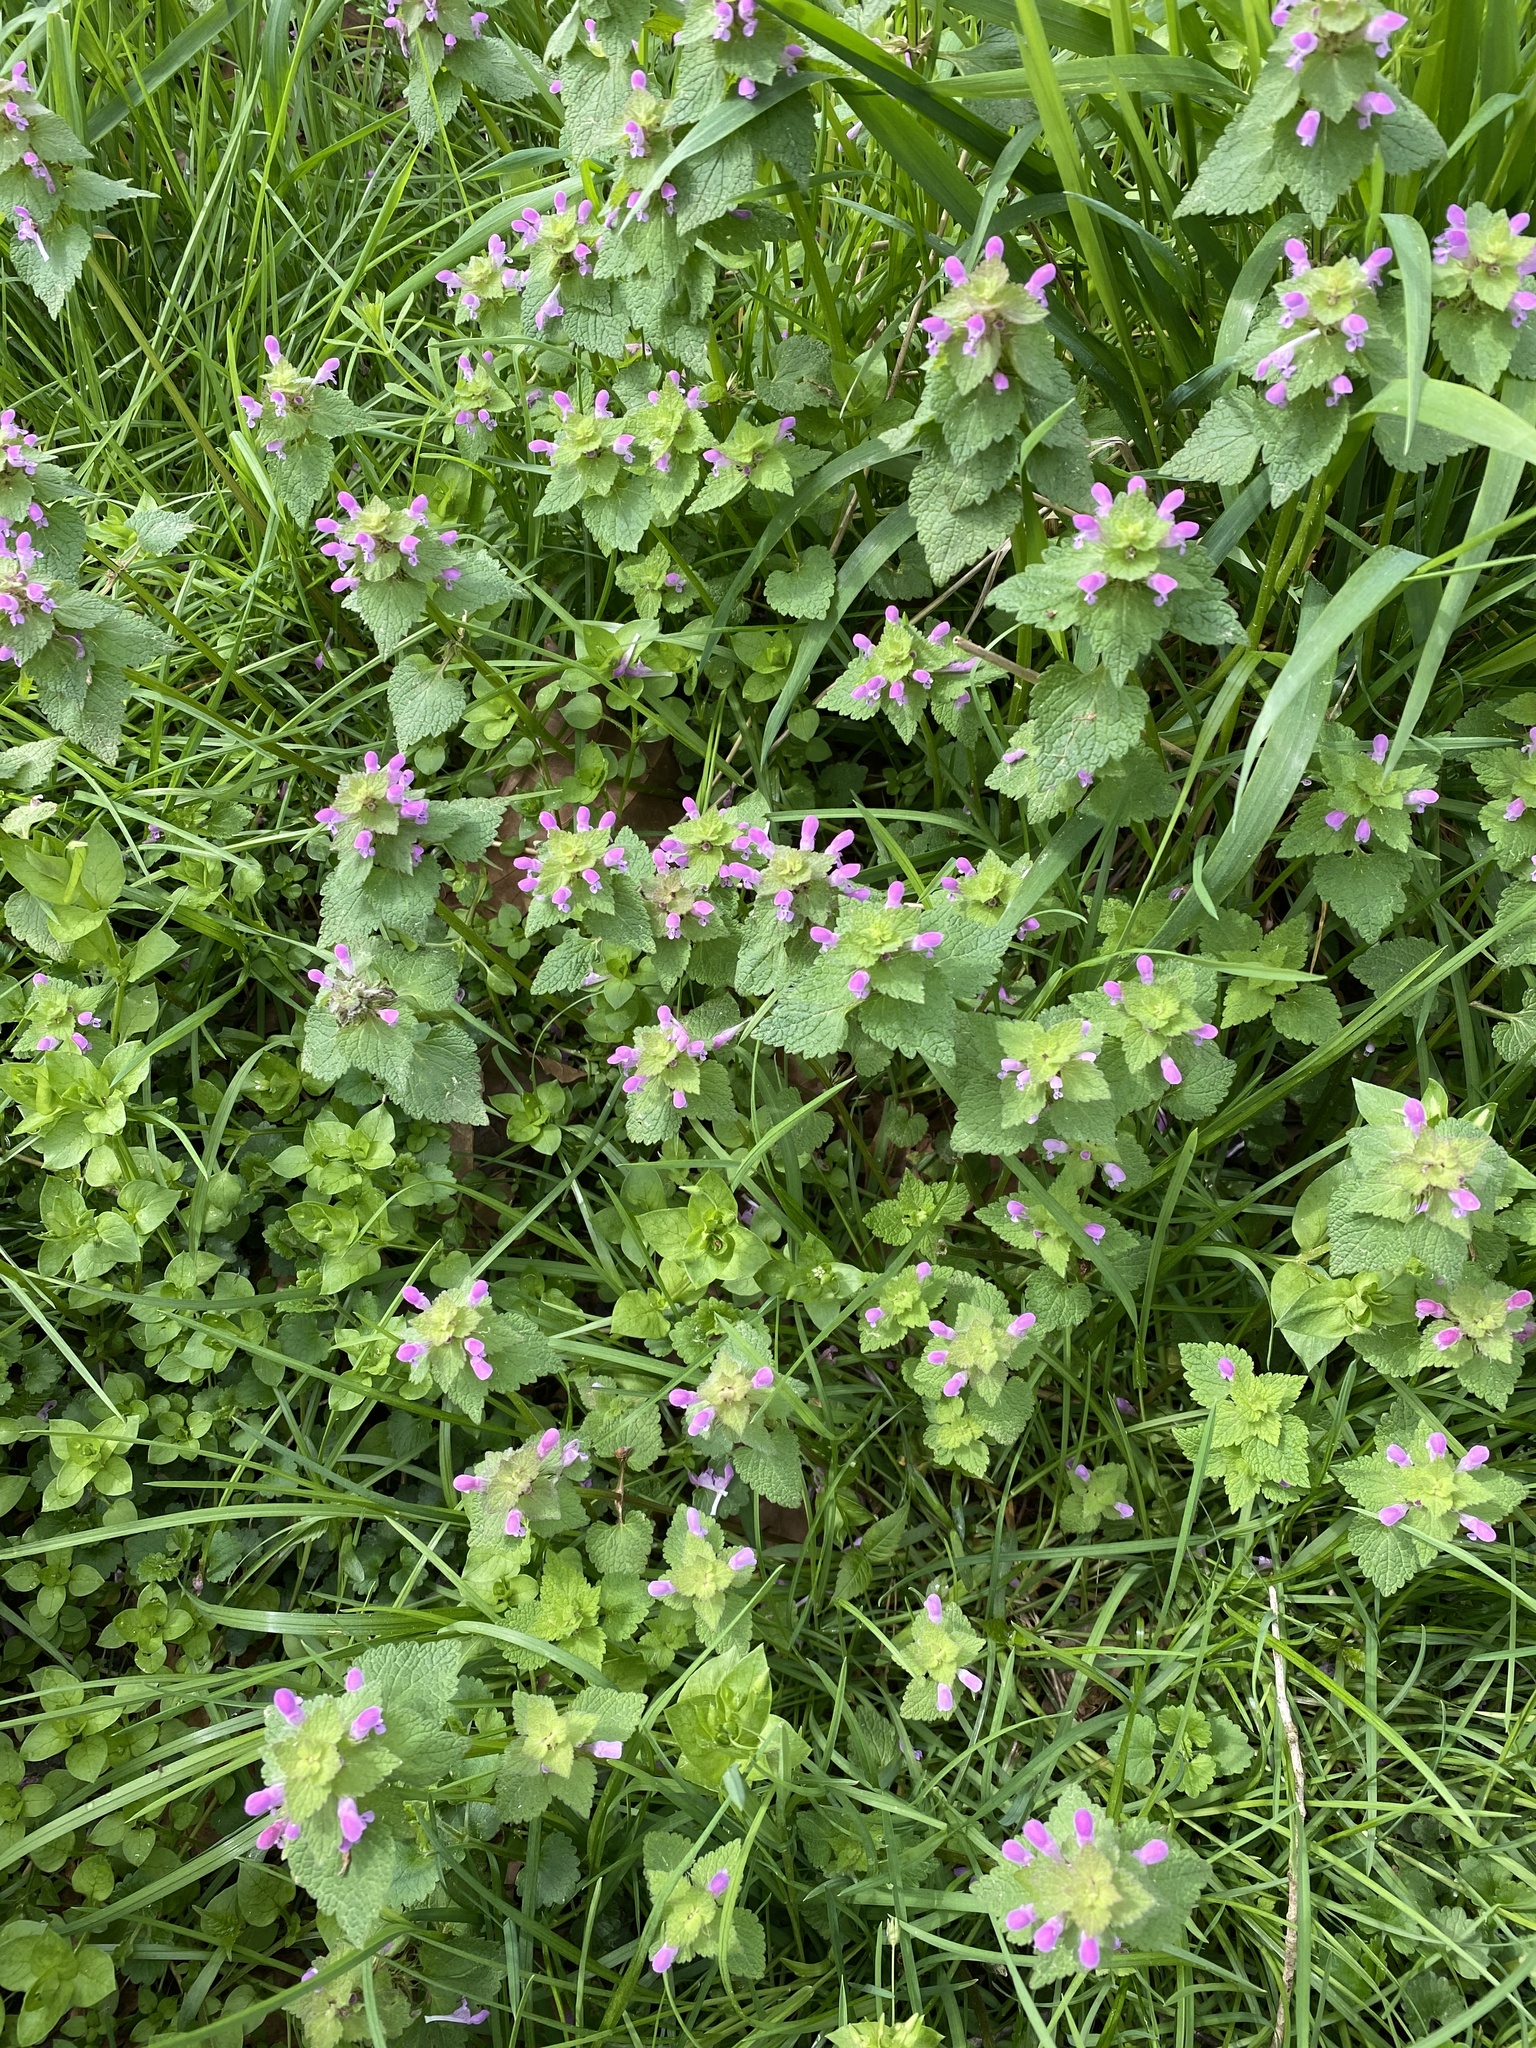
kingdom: Plantae
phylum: Tracheophyta
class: Magnoliopsida
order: Lamiales
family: Lamiaceae
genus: Lamium
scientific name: Lamium purpureum
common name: Red dead-nettle
